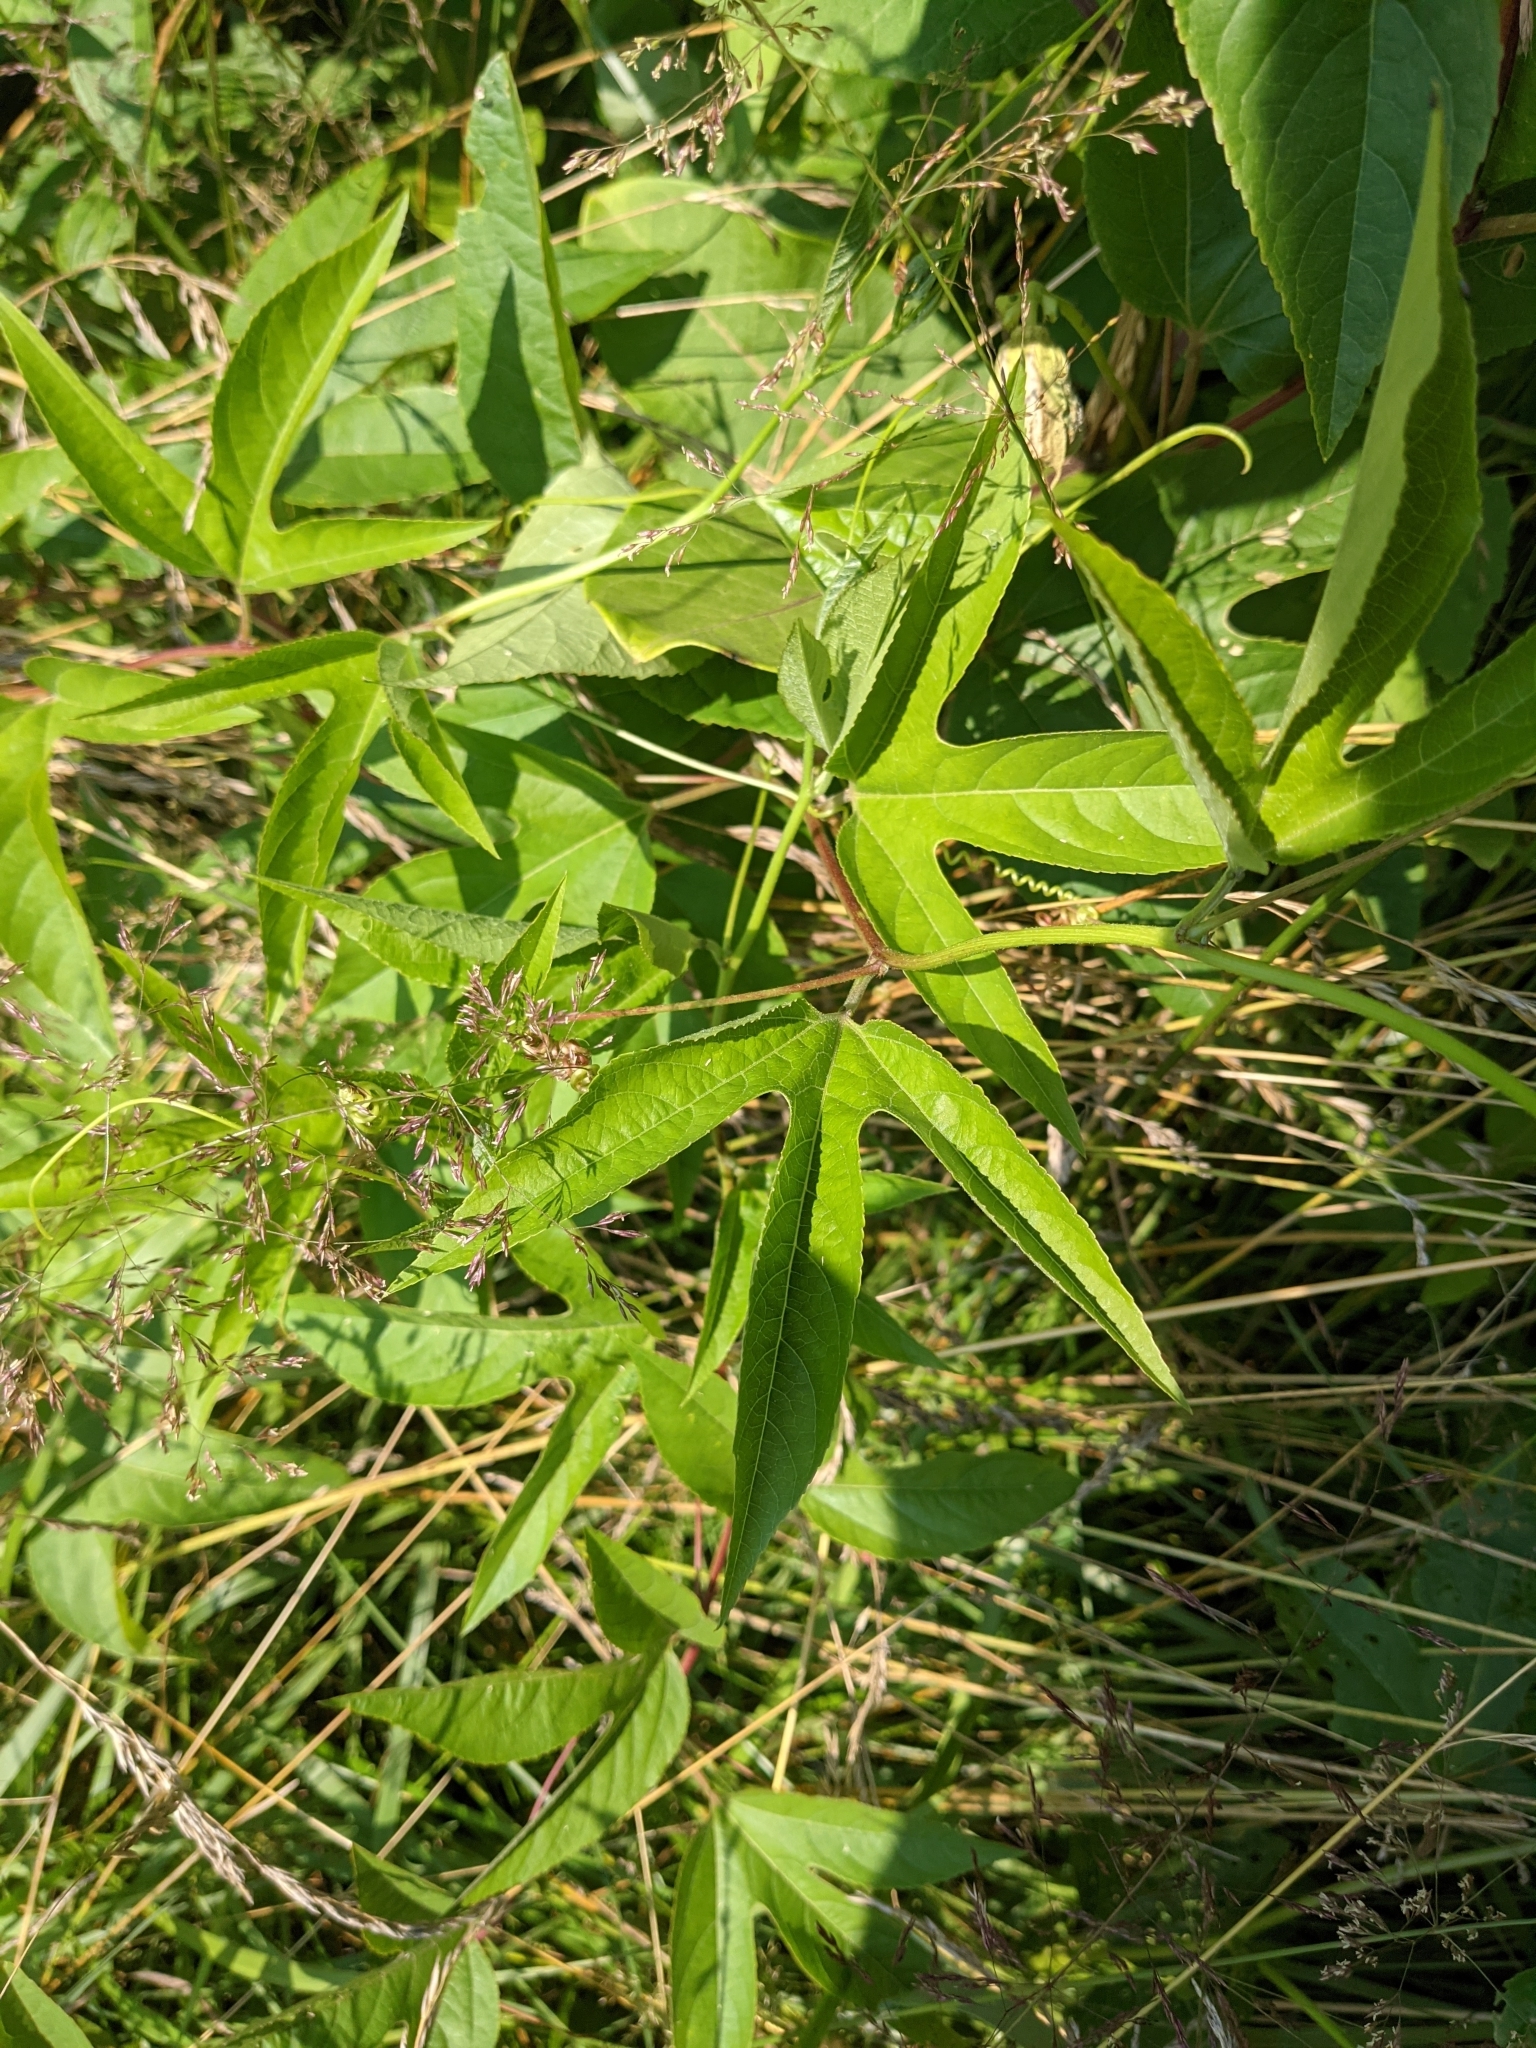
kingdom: Plantae
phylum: Tracheophyta
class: Magnoliopsida
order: Malpighiales
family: Passifloraceae
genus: Passiflora
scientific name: Passiflora incarnata
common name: Apricot-vine
